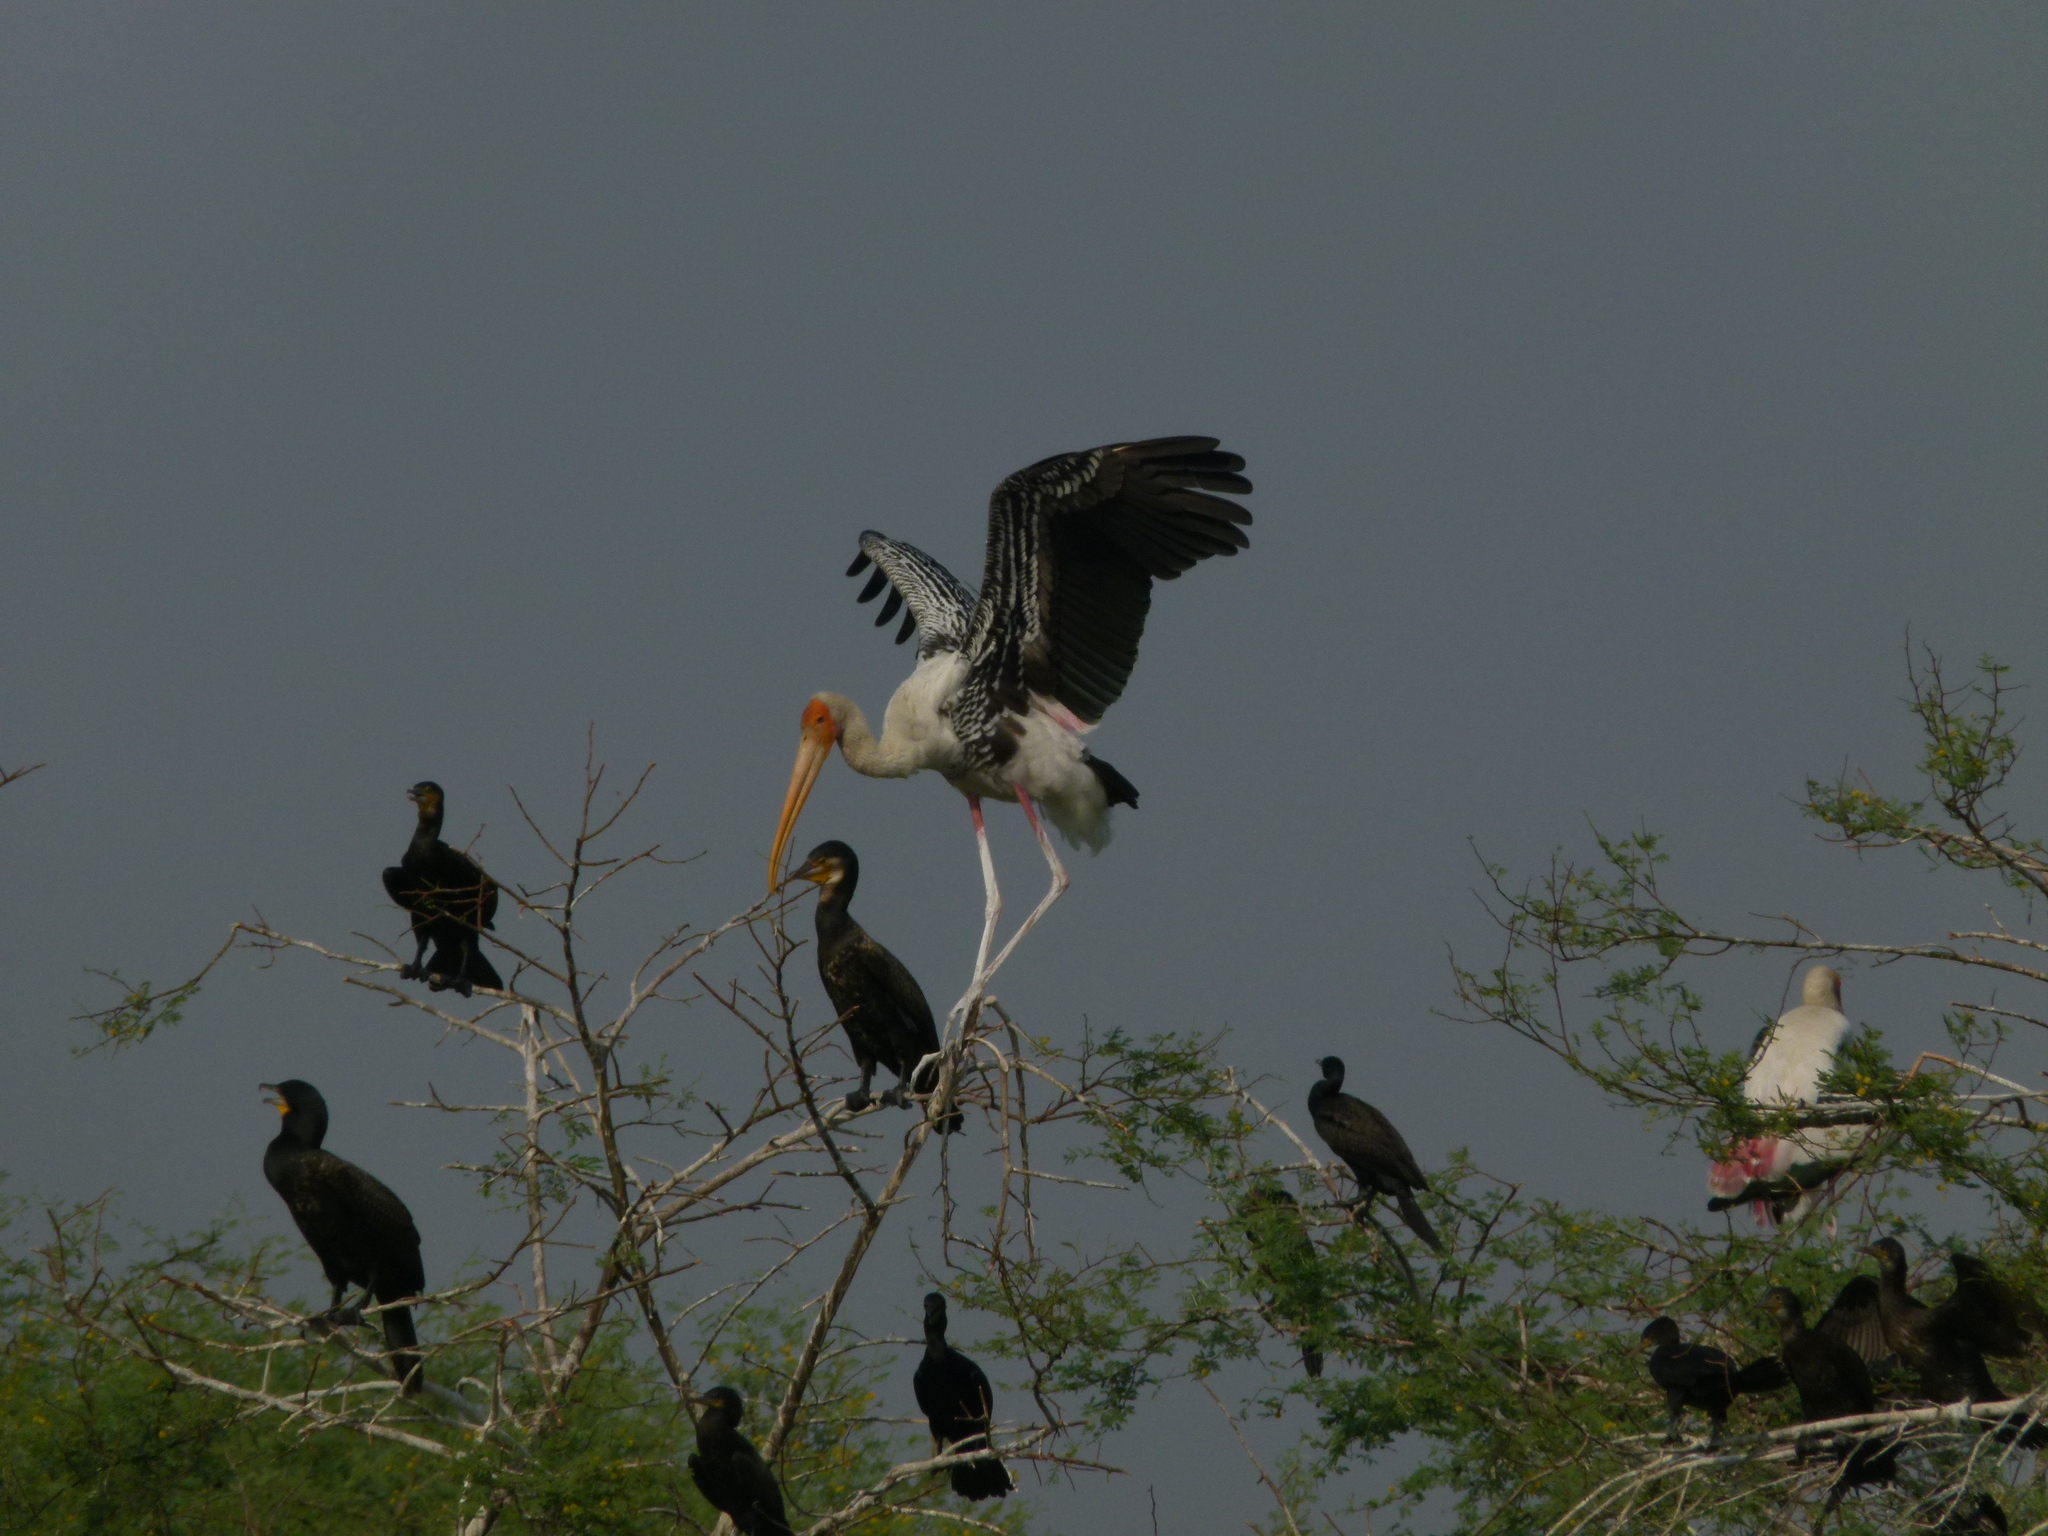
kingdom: Animalia
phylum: Chordata
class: Aves
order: Ciconiiformes
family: Ciconiidae
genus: Mycteria
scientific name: Mycteria leucocephala
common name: Painted stork
